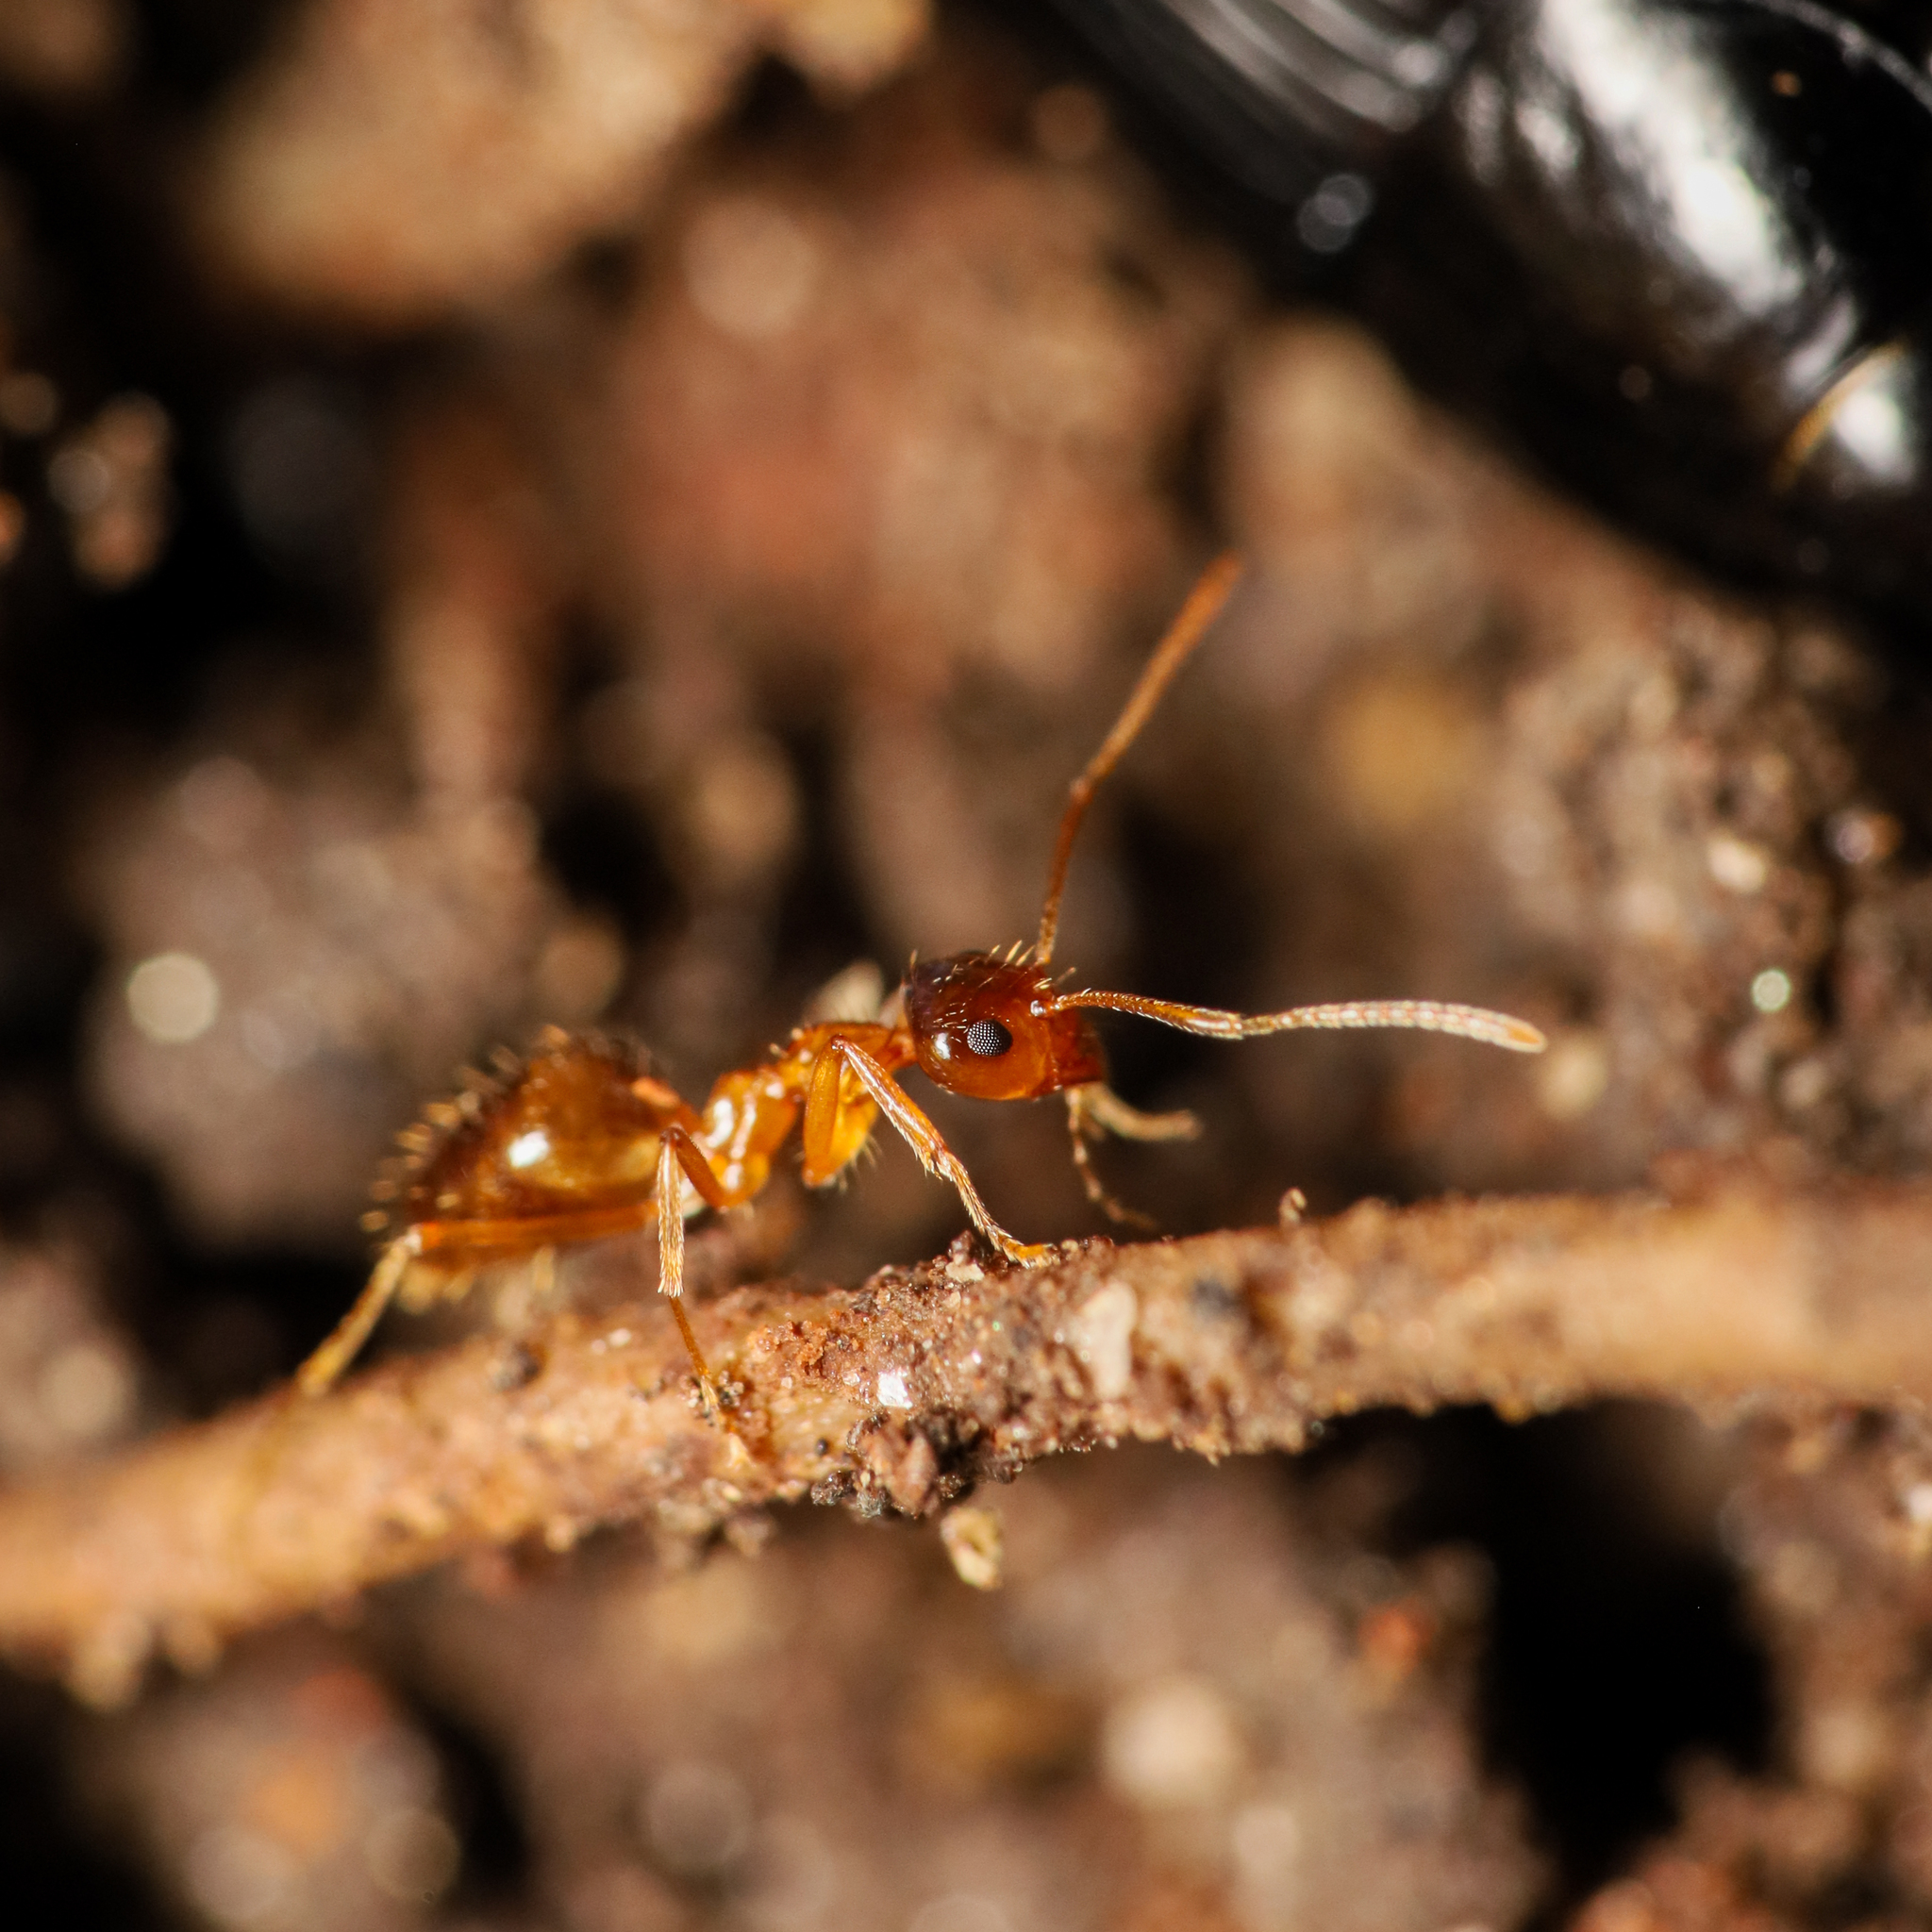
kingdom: Animalia
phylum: Arthropoda
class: Insecta
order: Hymenoptera
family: Formicidae
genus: Prenolepis
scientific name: Prenolepis imparis
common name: Small honey ant
